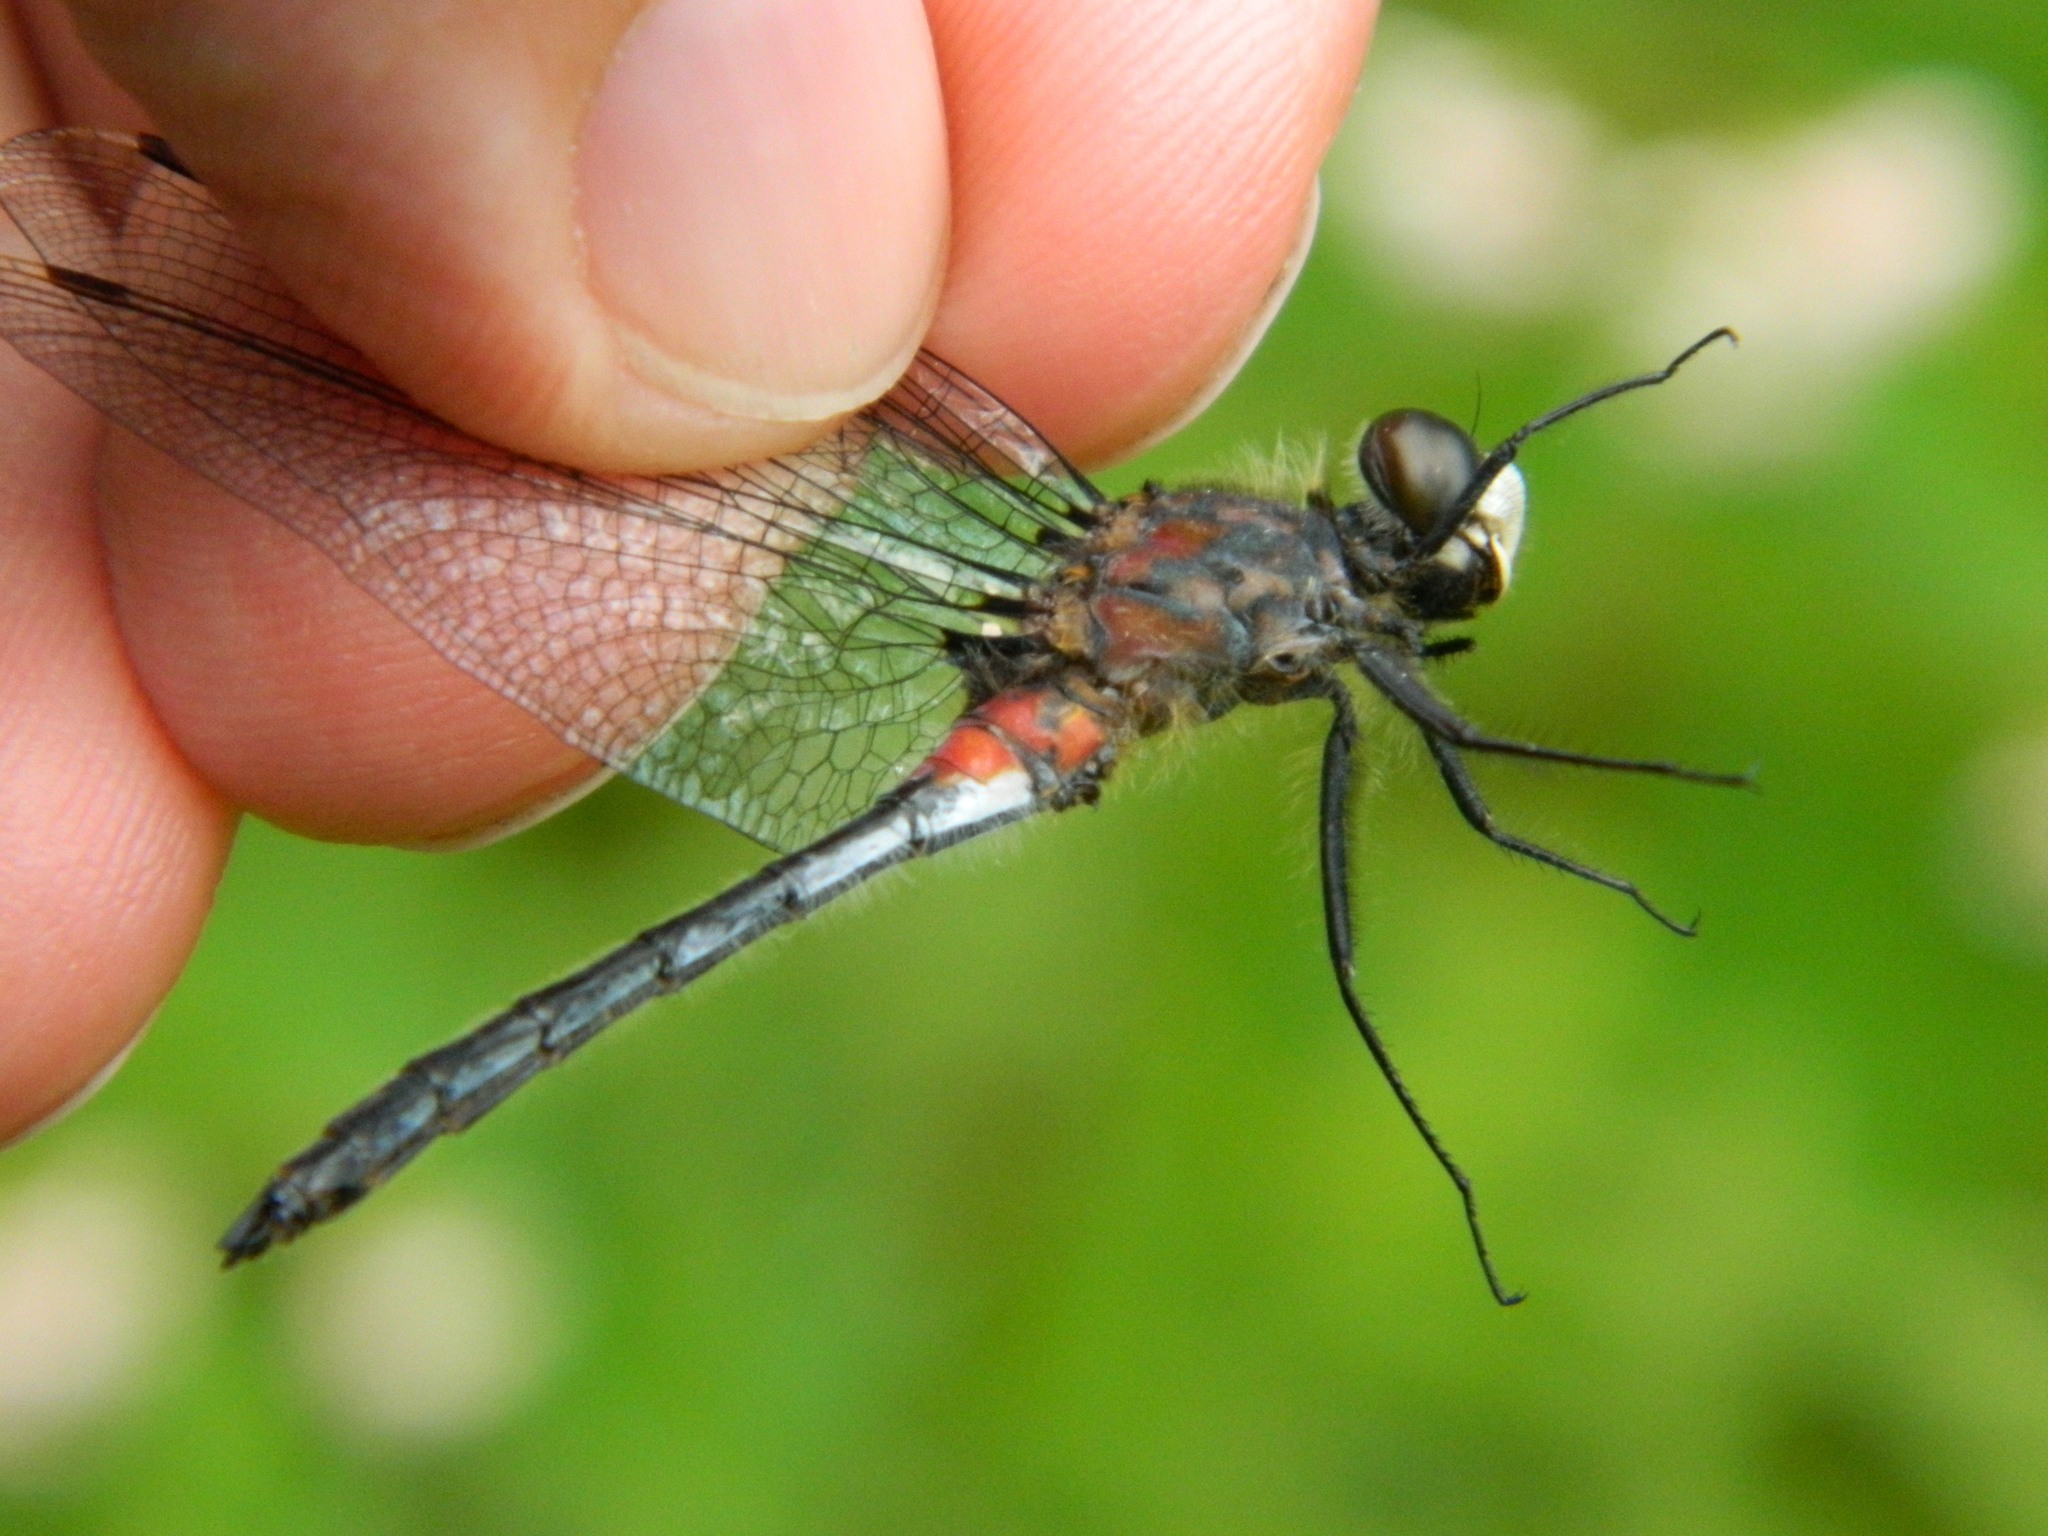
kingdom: Animalia
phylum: Arthropoda
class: Insecta
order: Odonata
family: Libellulidae
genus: Leucorrhinia
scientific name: Leucorrhinia proxima
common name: Belted whiteface
